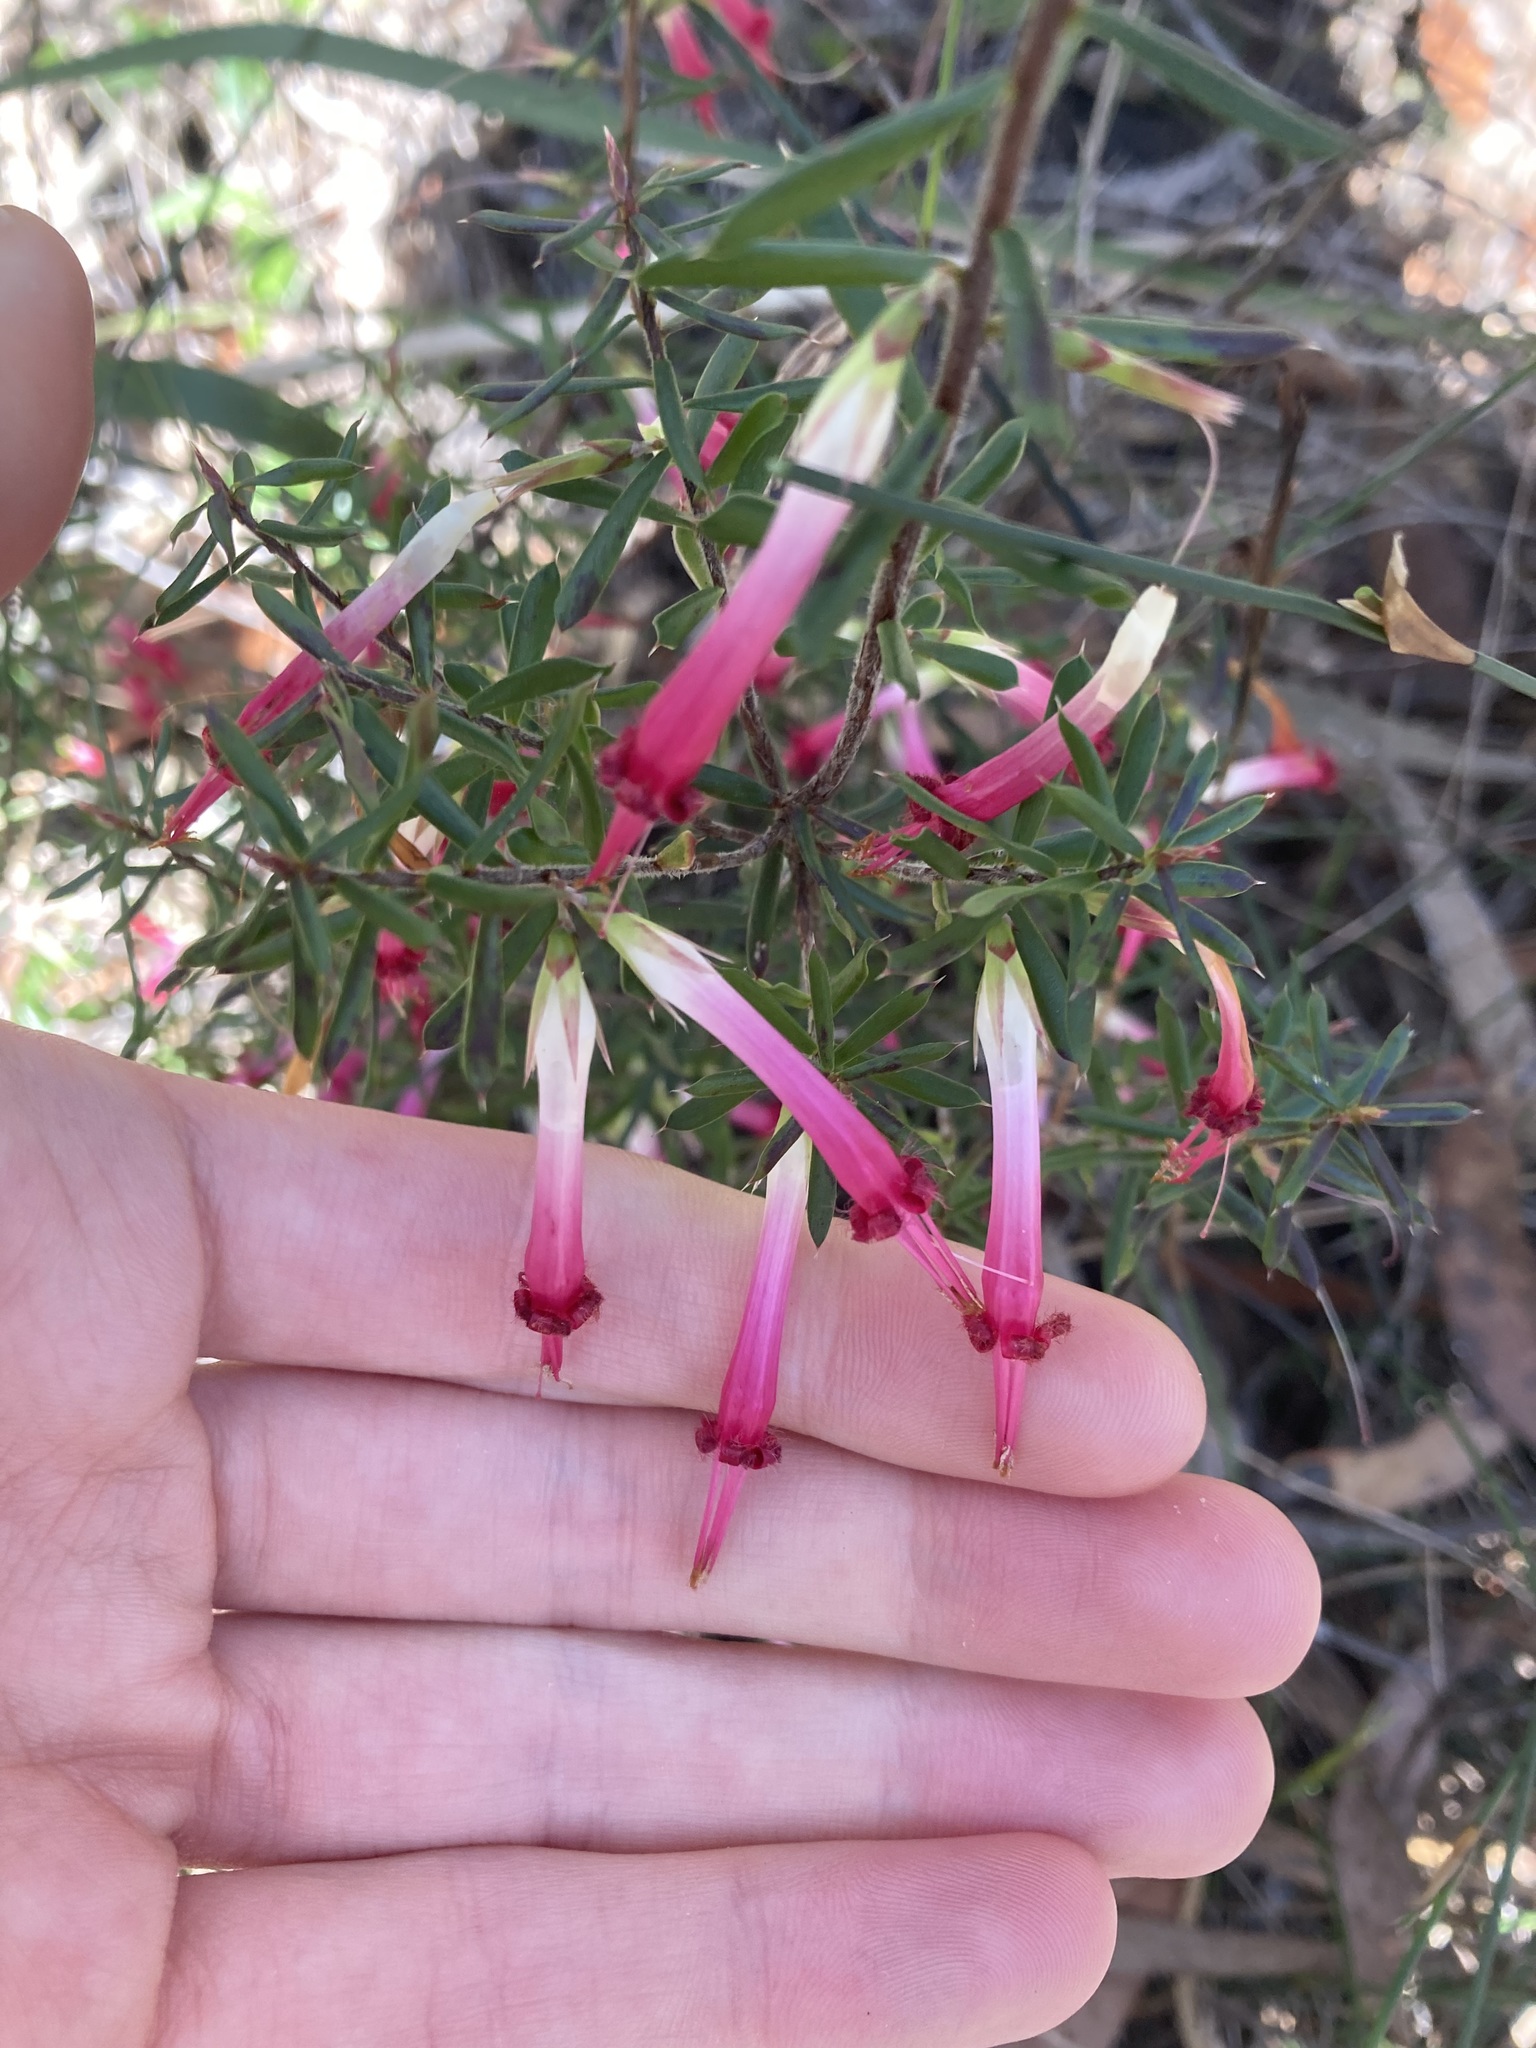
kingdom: Plantae
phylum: Tracheophyta
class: Magnoliopsida
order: Ericales
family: Ericaceae
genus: Styphelia
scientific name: Styphelia tubiflora
